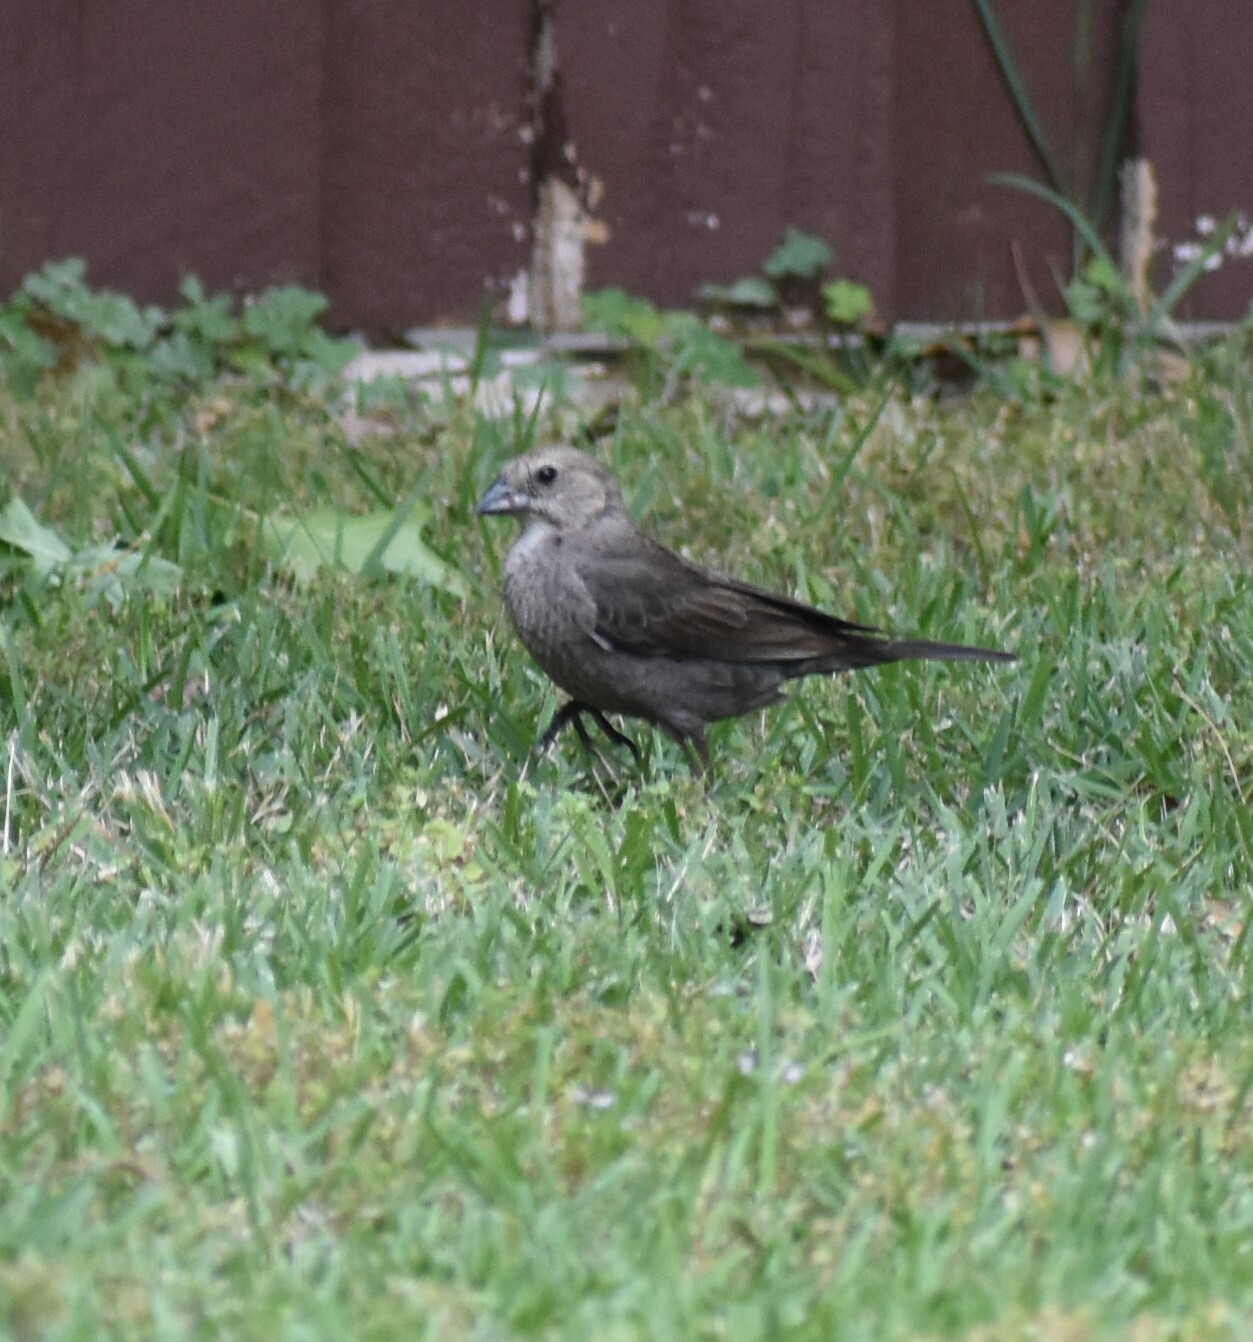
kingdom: Animalia
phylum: Chordata
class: Aves
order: Passeriformes
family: Icteridae
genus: Molothrus
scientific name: Molothrus ater
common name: Brown-headed cowbird
